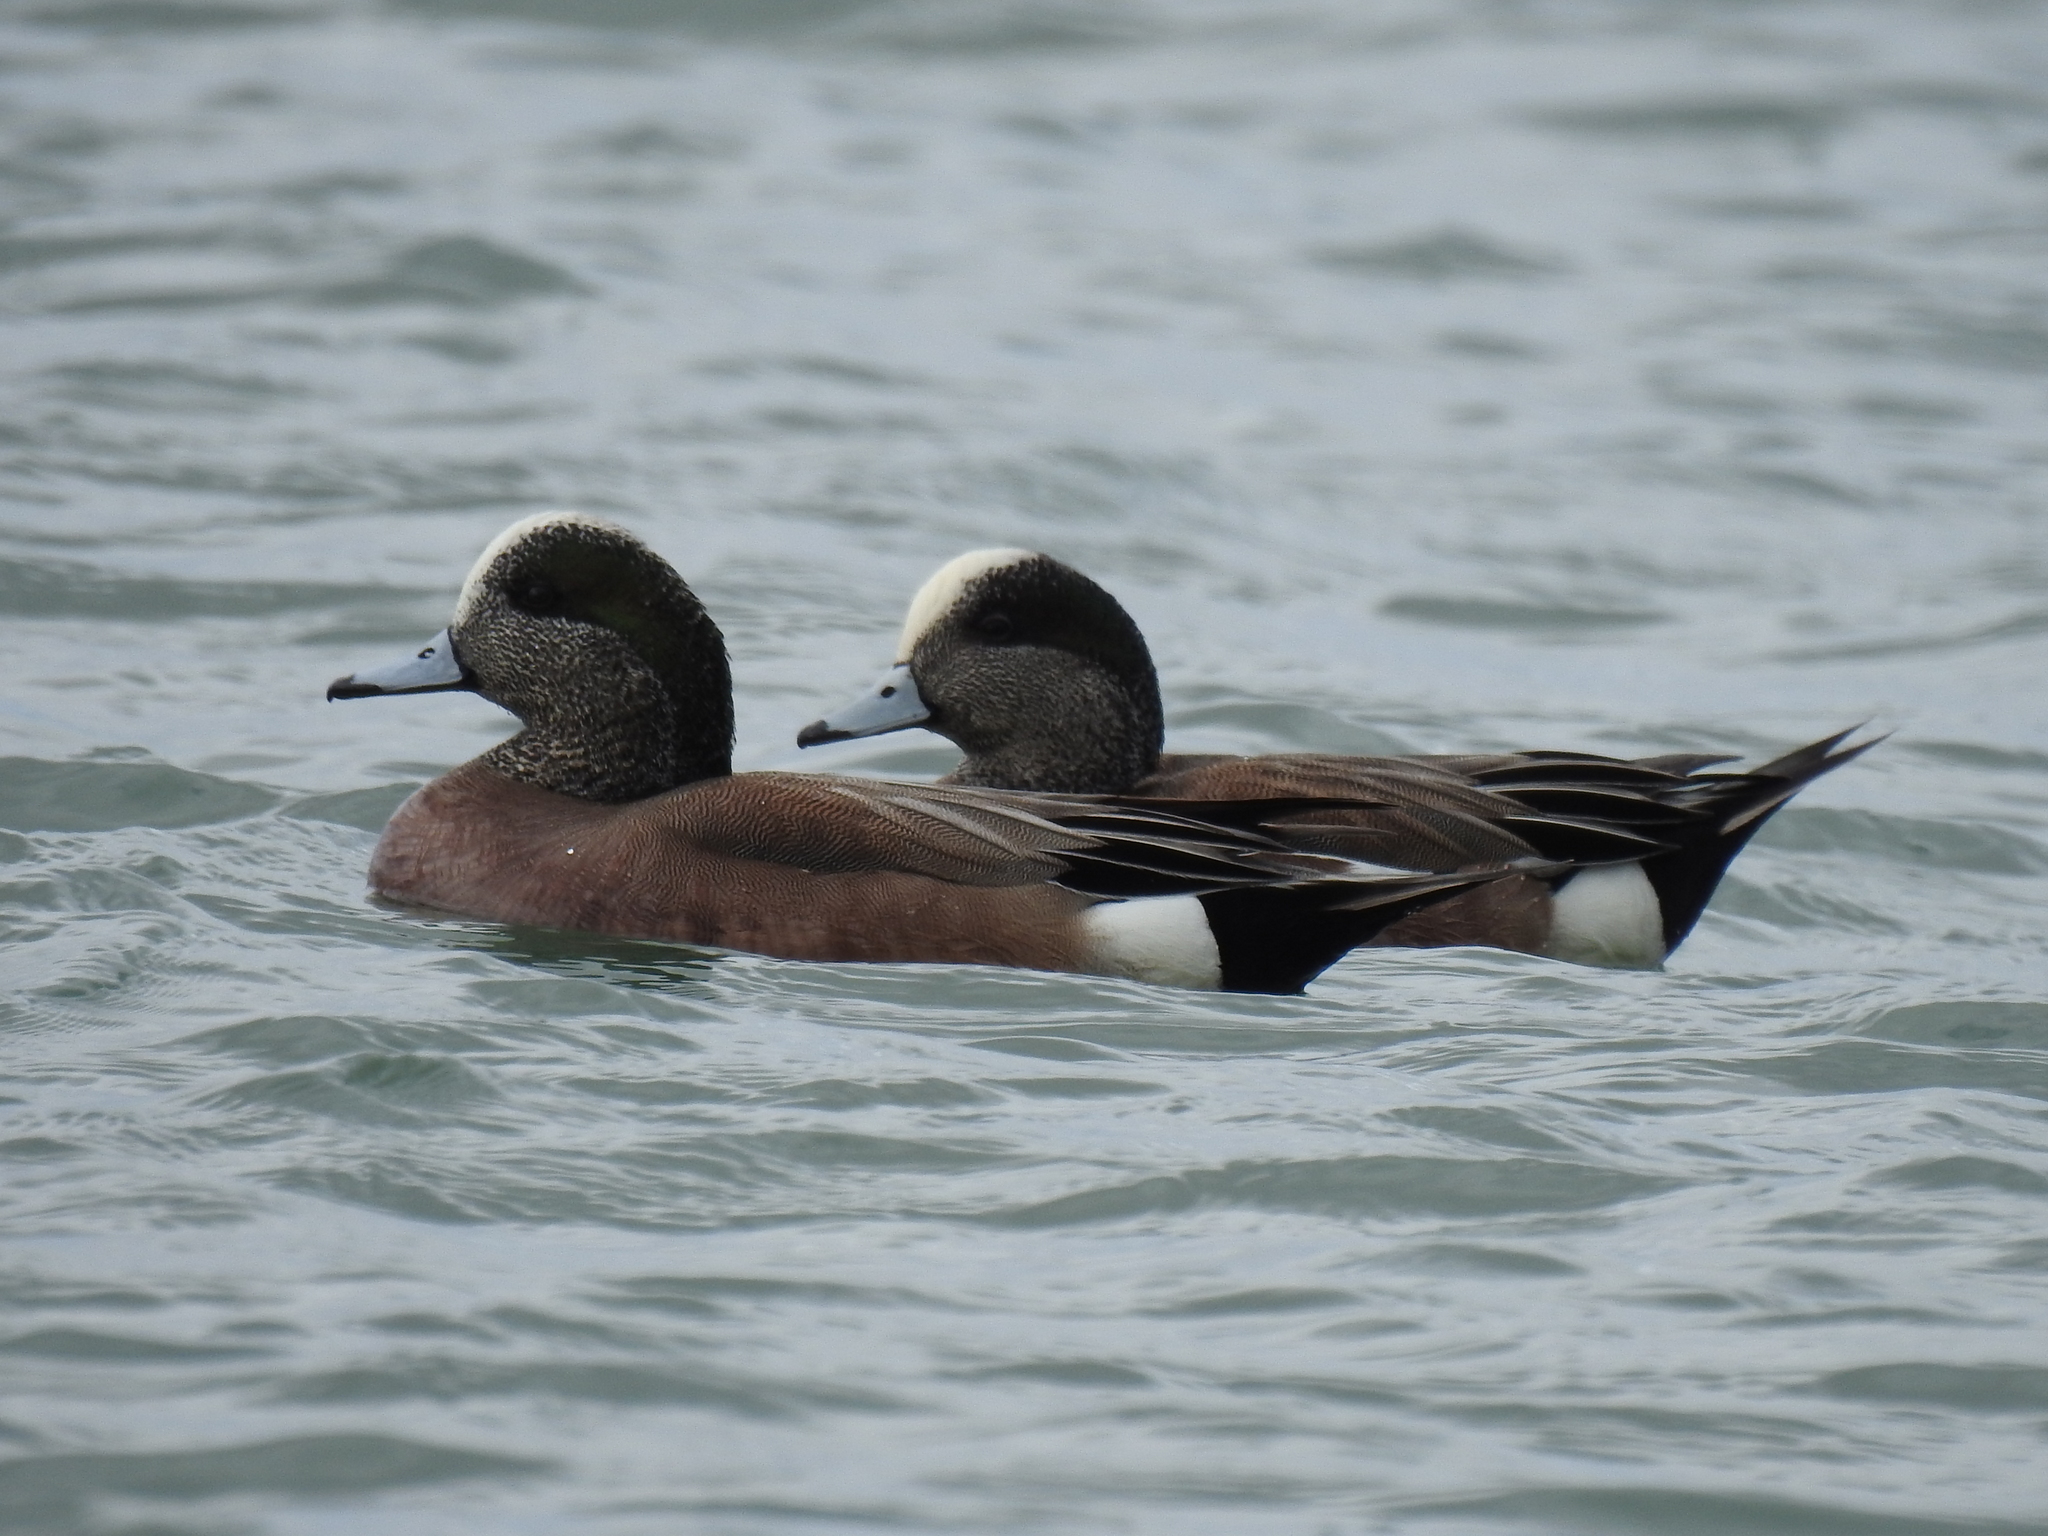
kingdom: Animalia
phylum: Chordata
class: Aves
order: Anseriformes
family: Anatidae
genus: Mareca
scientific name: Mareca americana
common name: American wigeon
